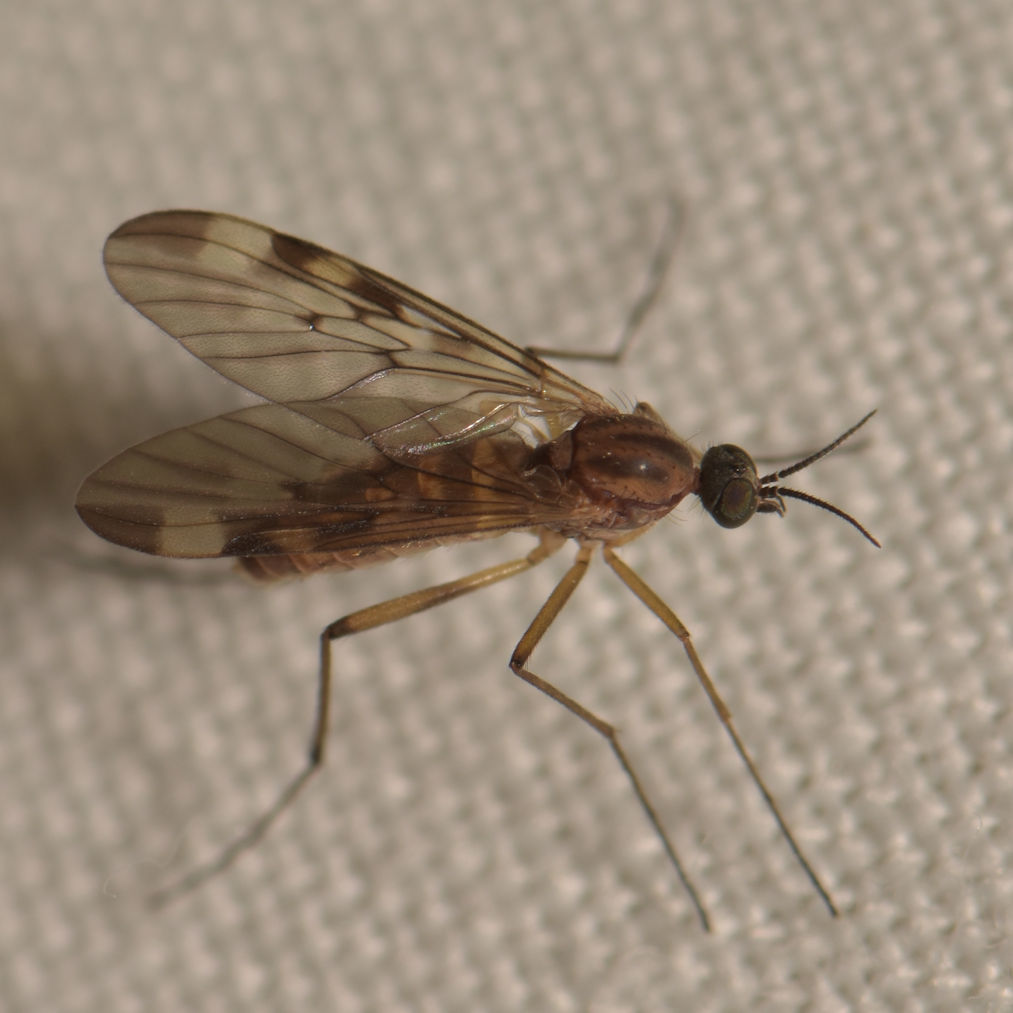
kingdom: Animalia
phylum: Arthropoda
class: Insecta
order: Diptera
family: Anisopodidae
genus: Sylvicola
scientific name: Sylvicola fenestralis
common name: Window gnat
